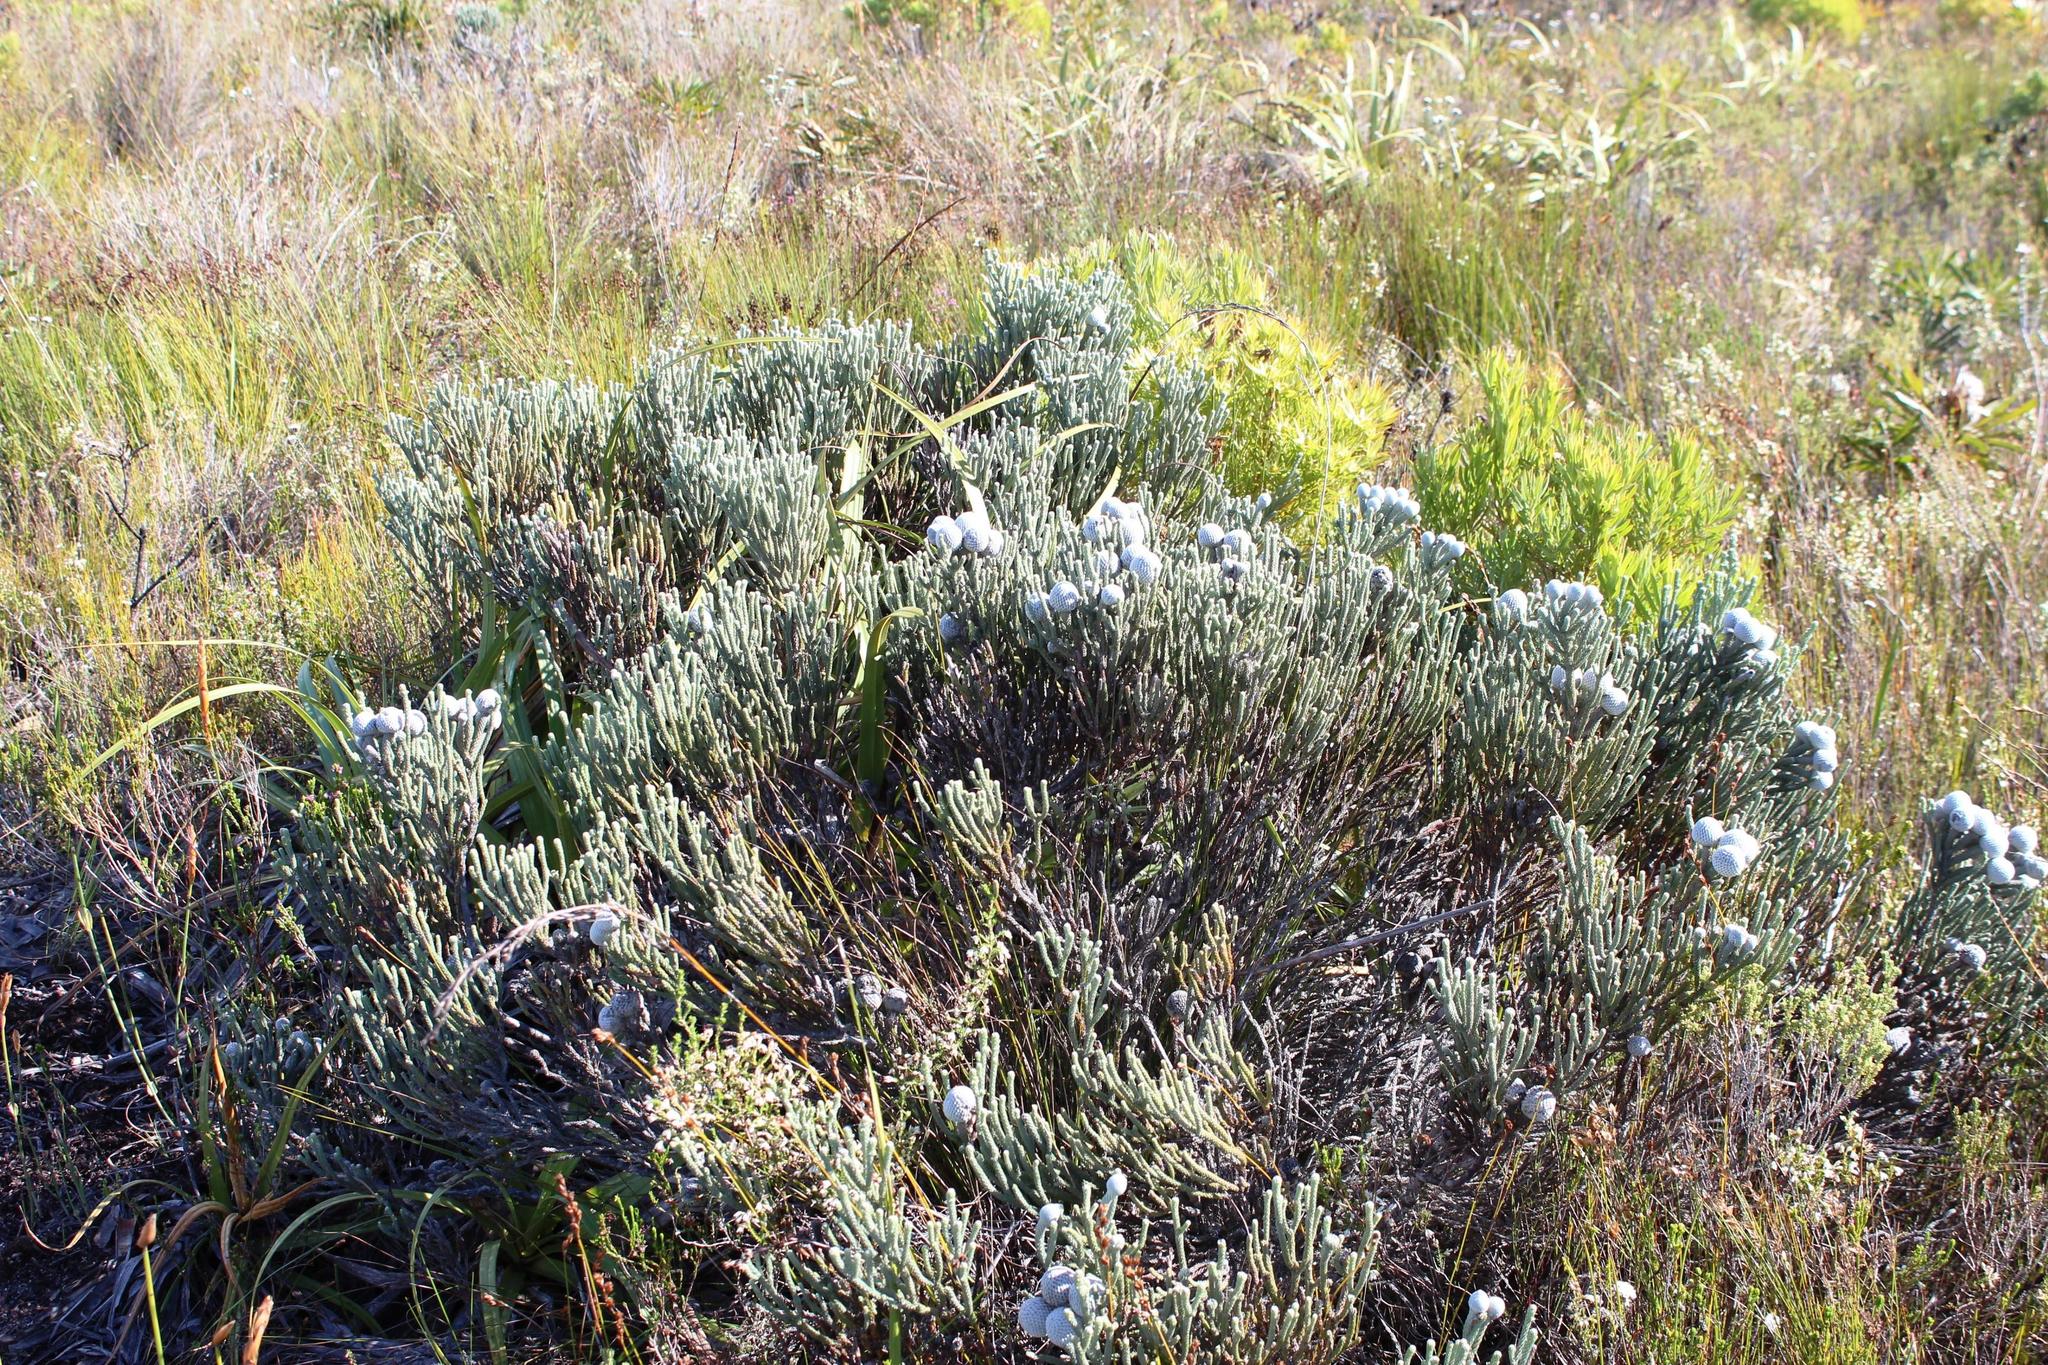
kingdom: Plantae
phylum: Tracheophyta
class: Magnoliopsida
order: Bruniales
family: Bruniaceae
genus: Brunia
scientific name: Brunia laevis
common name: Silver brunia
